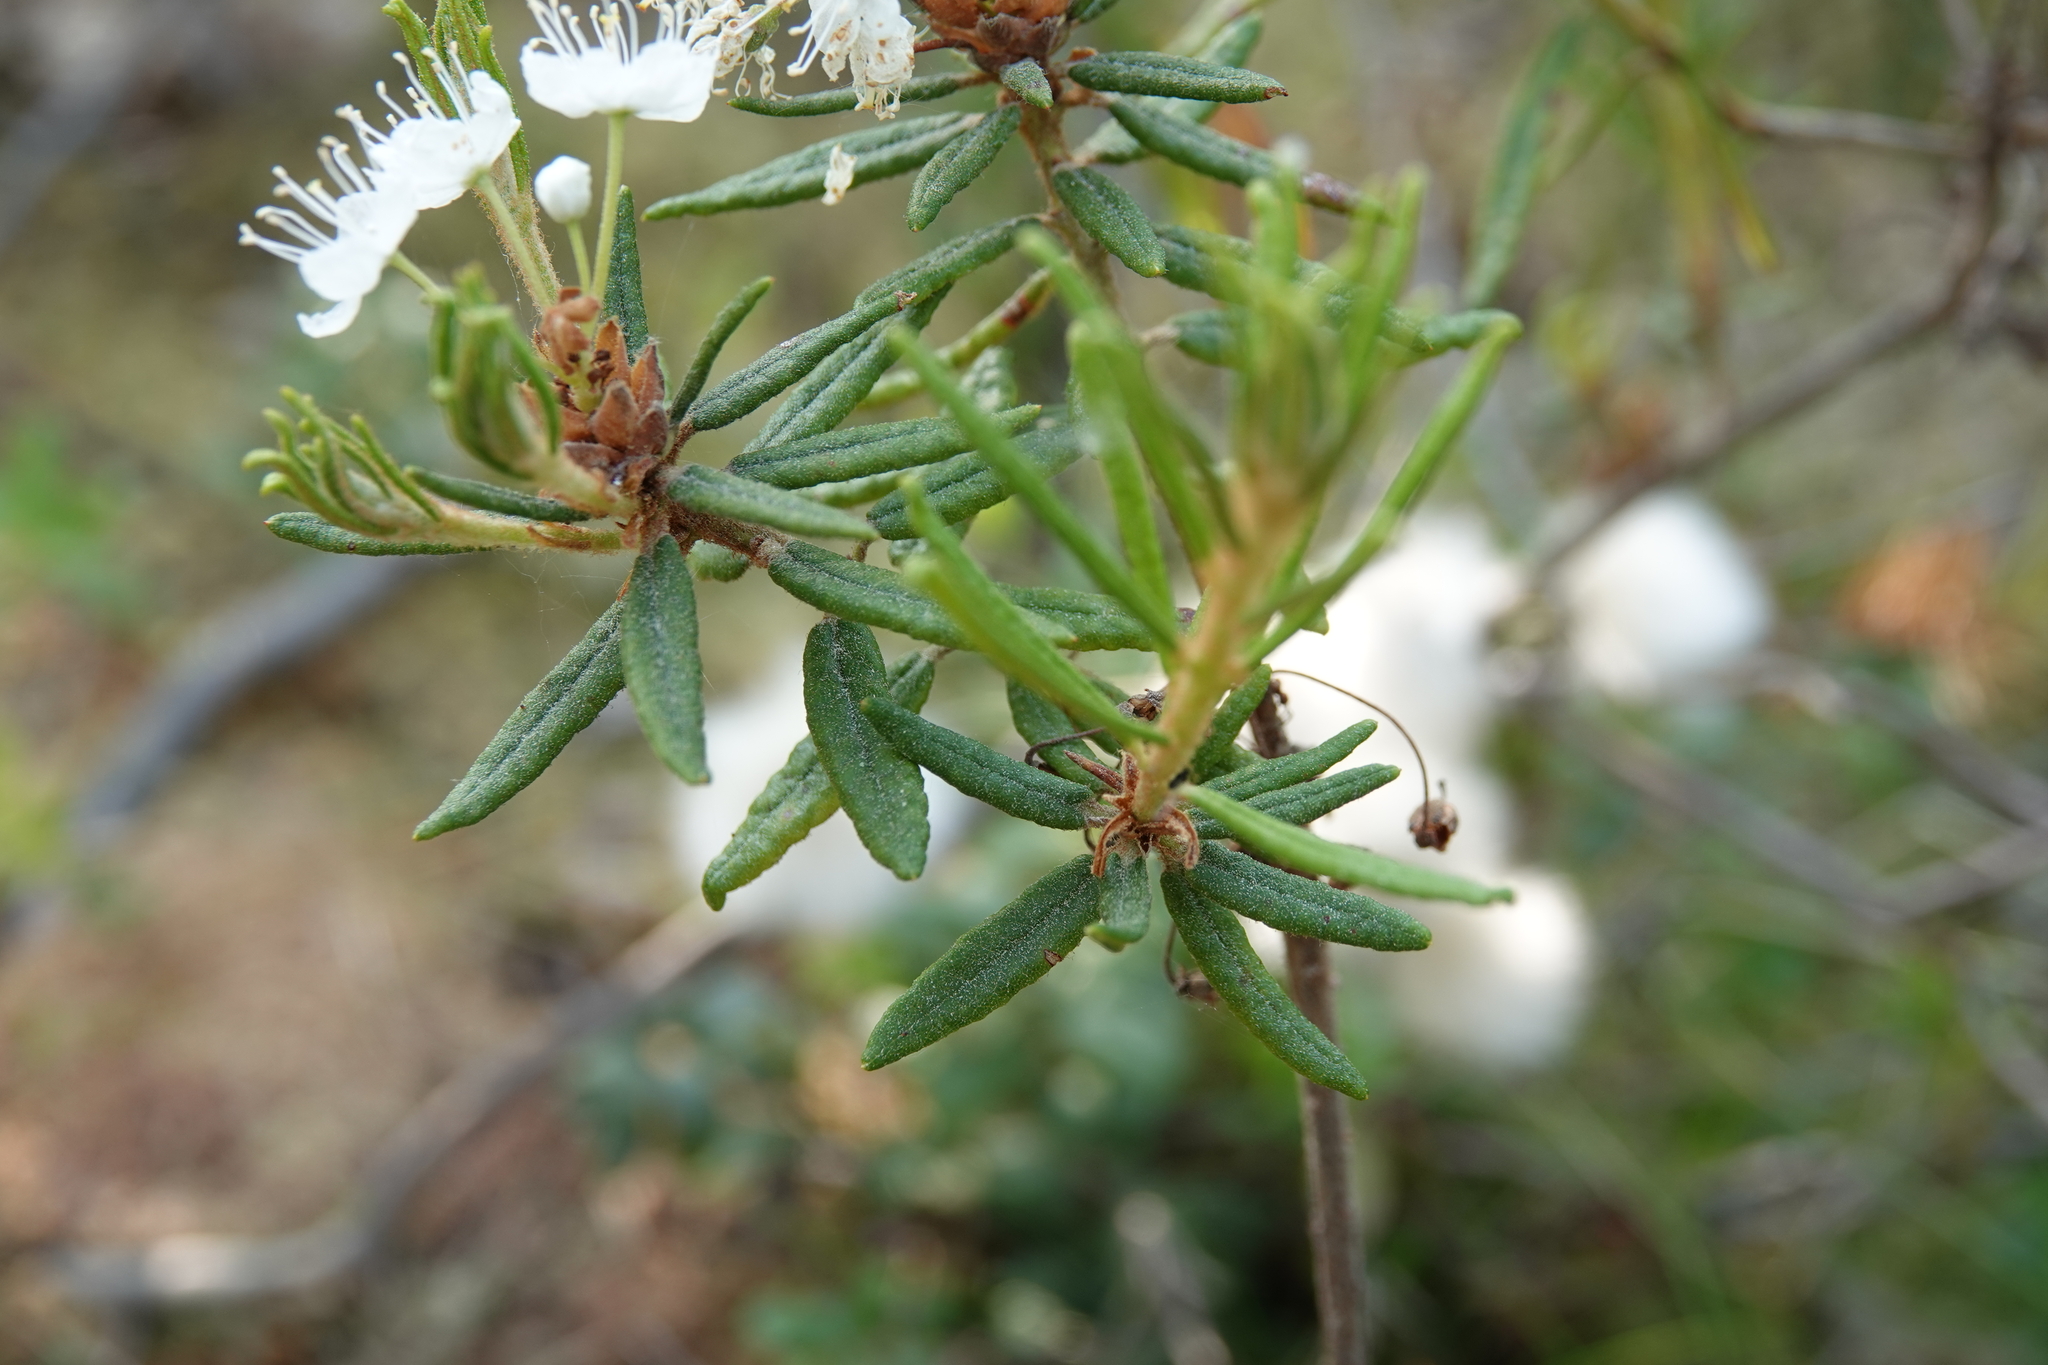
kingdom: Plantae
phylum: Tracheophyta
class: Magnoliopsida
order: Ericales
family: Ericaceae
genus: Rhododendron
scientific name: Rhododendron tomentosum
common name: Marsh labrador tea
